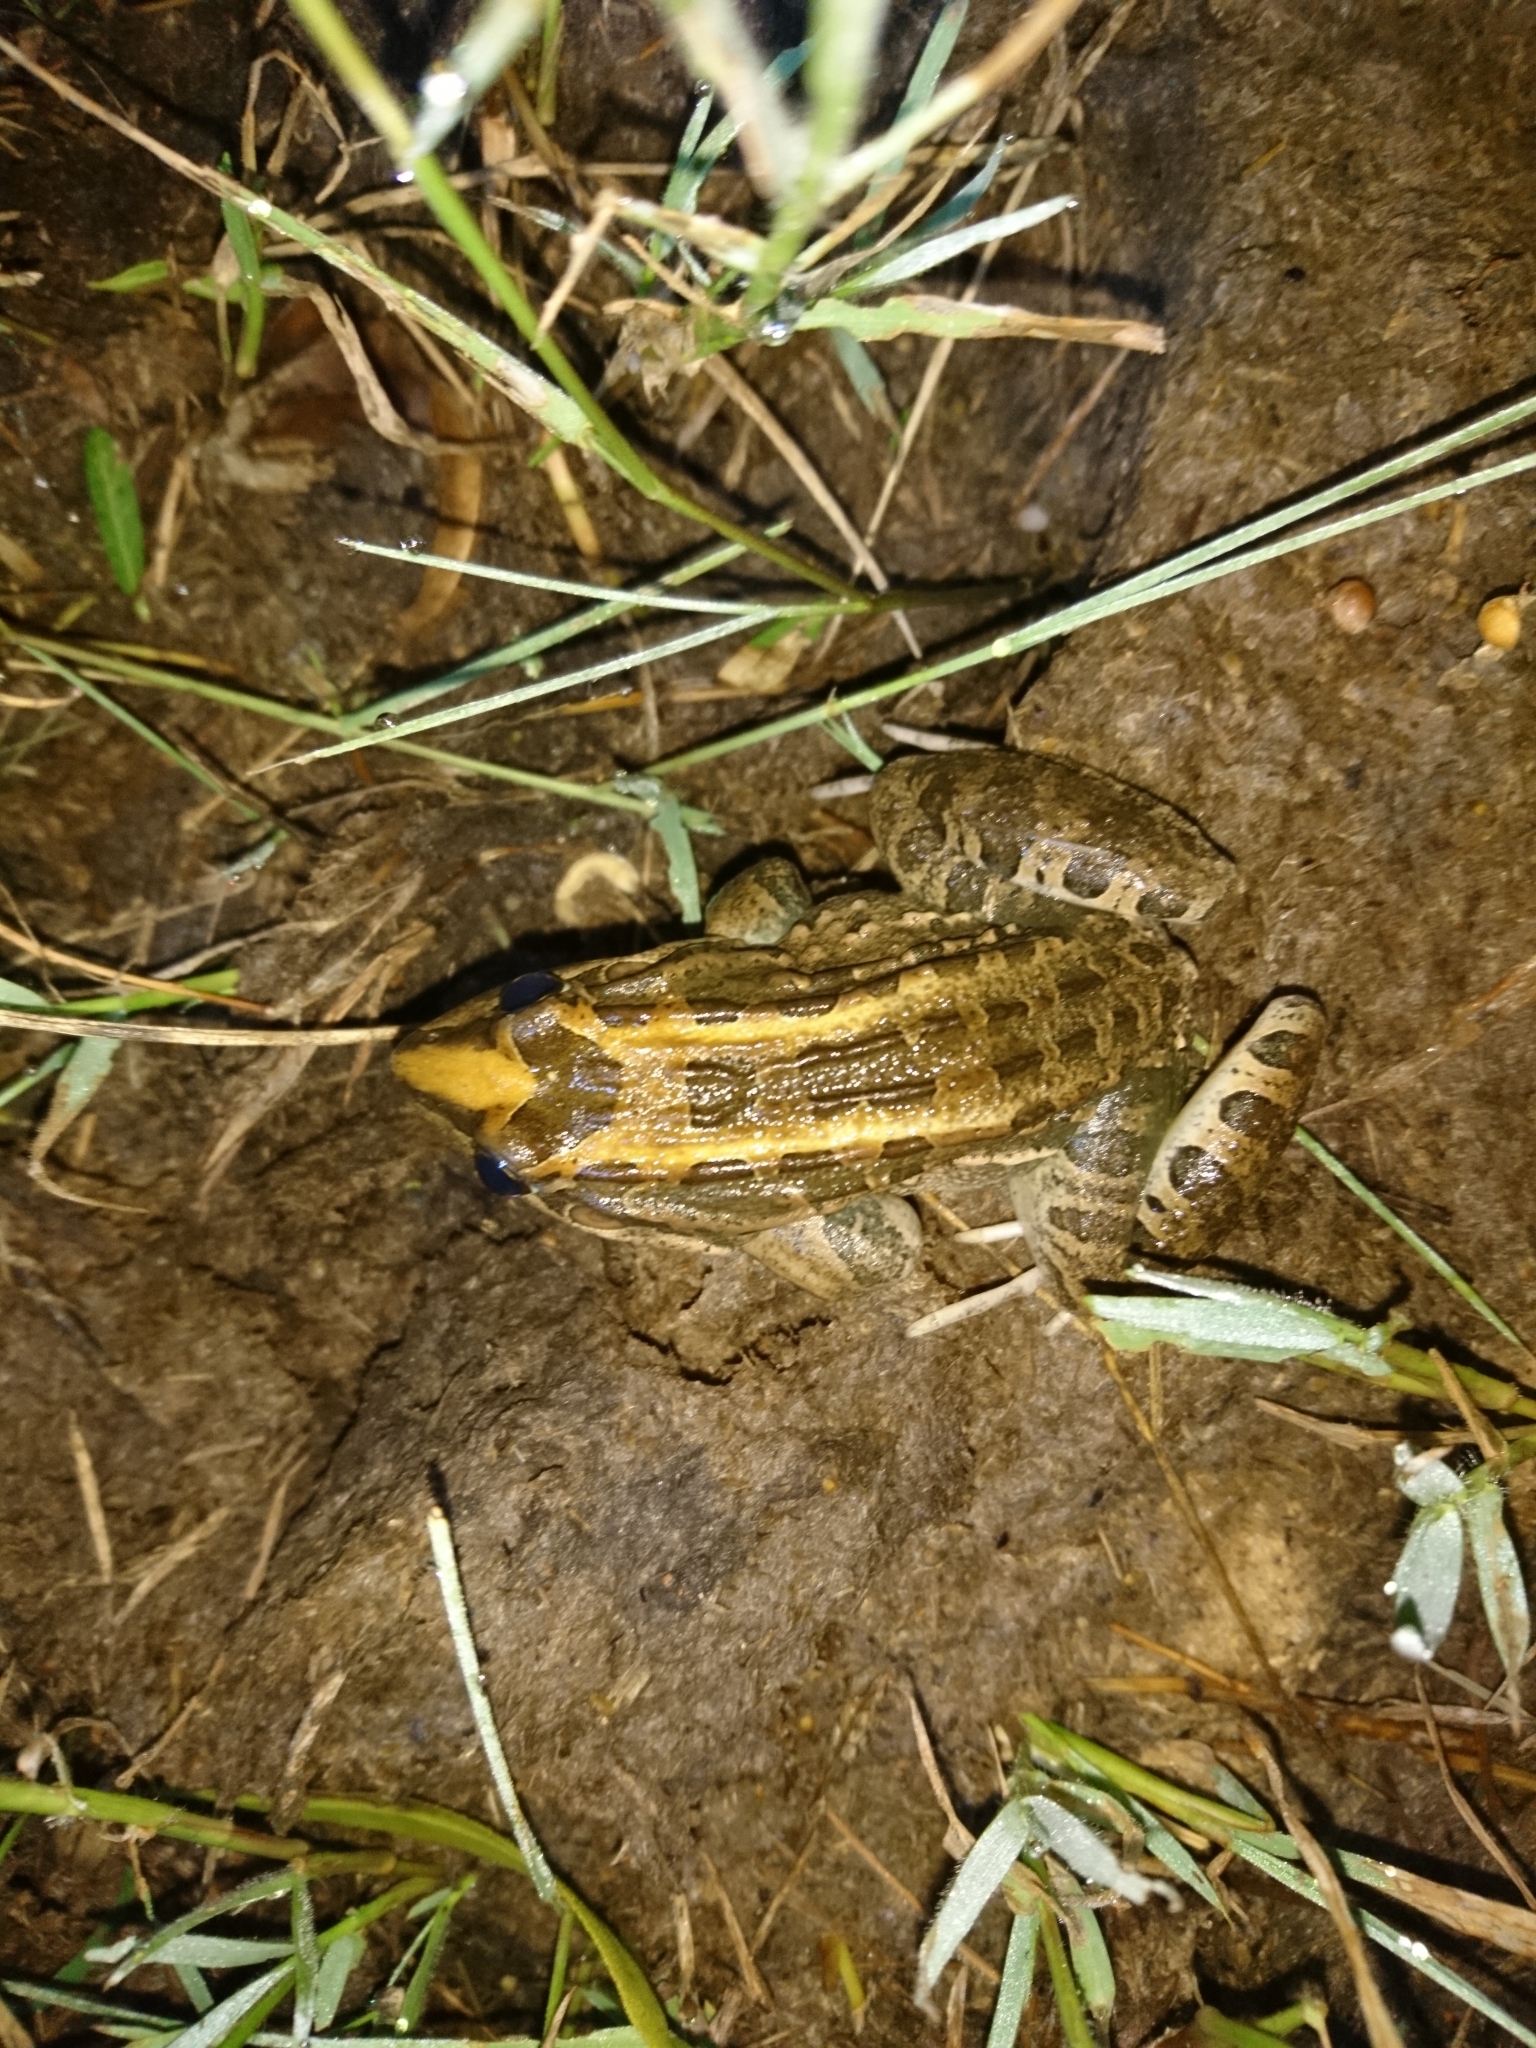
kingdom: Animalia
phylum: Chordata
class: Amphibia
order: Anura
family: Leptodactylidae
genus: Leptodactylus
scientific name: Leptodactylus luctator
